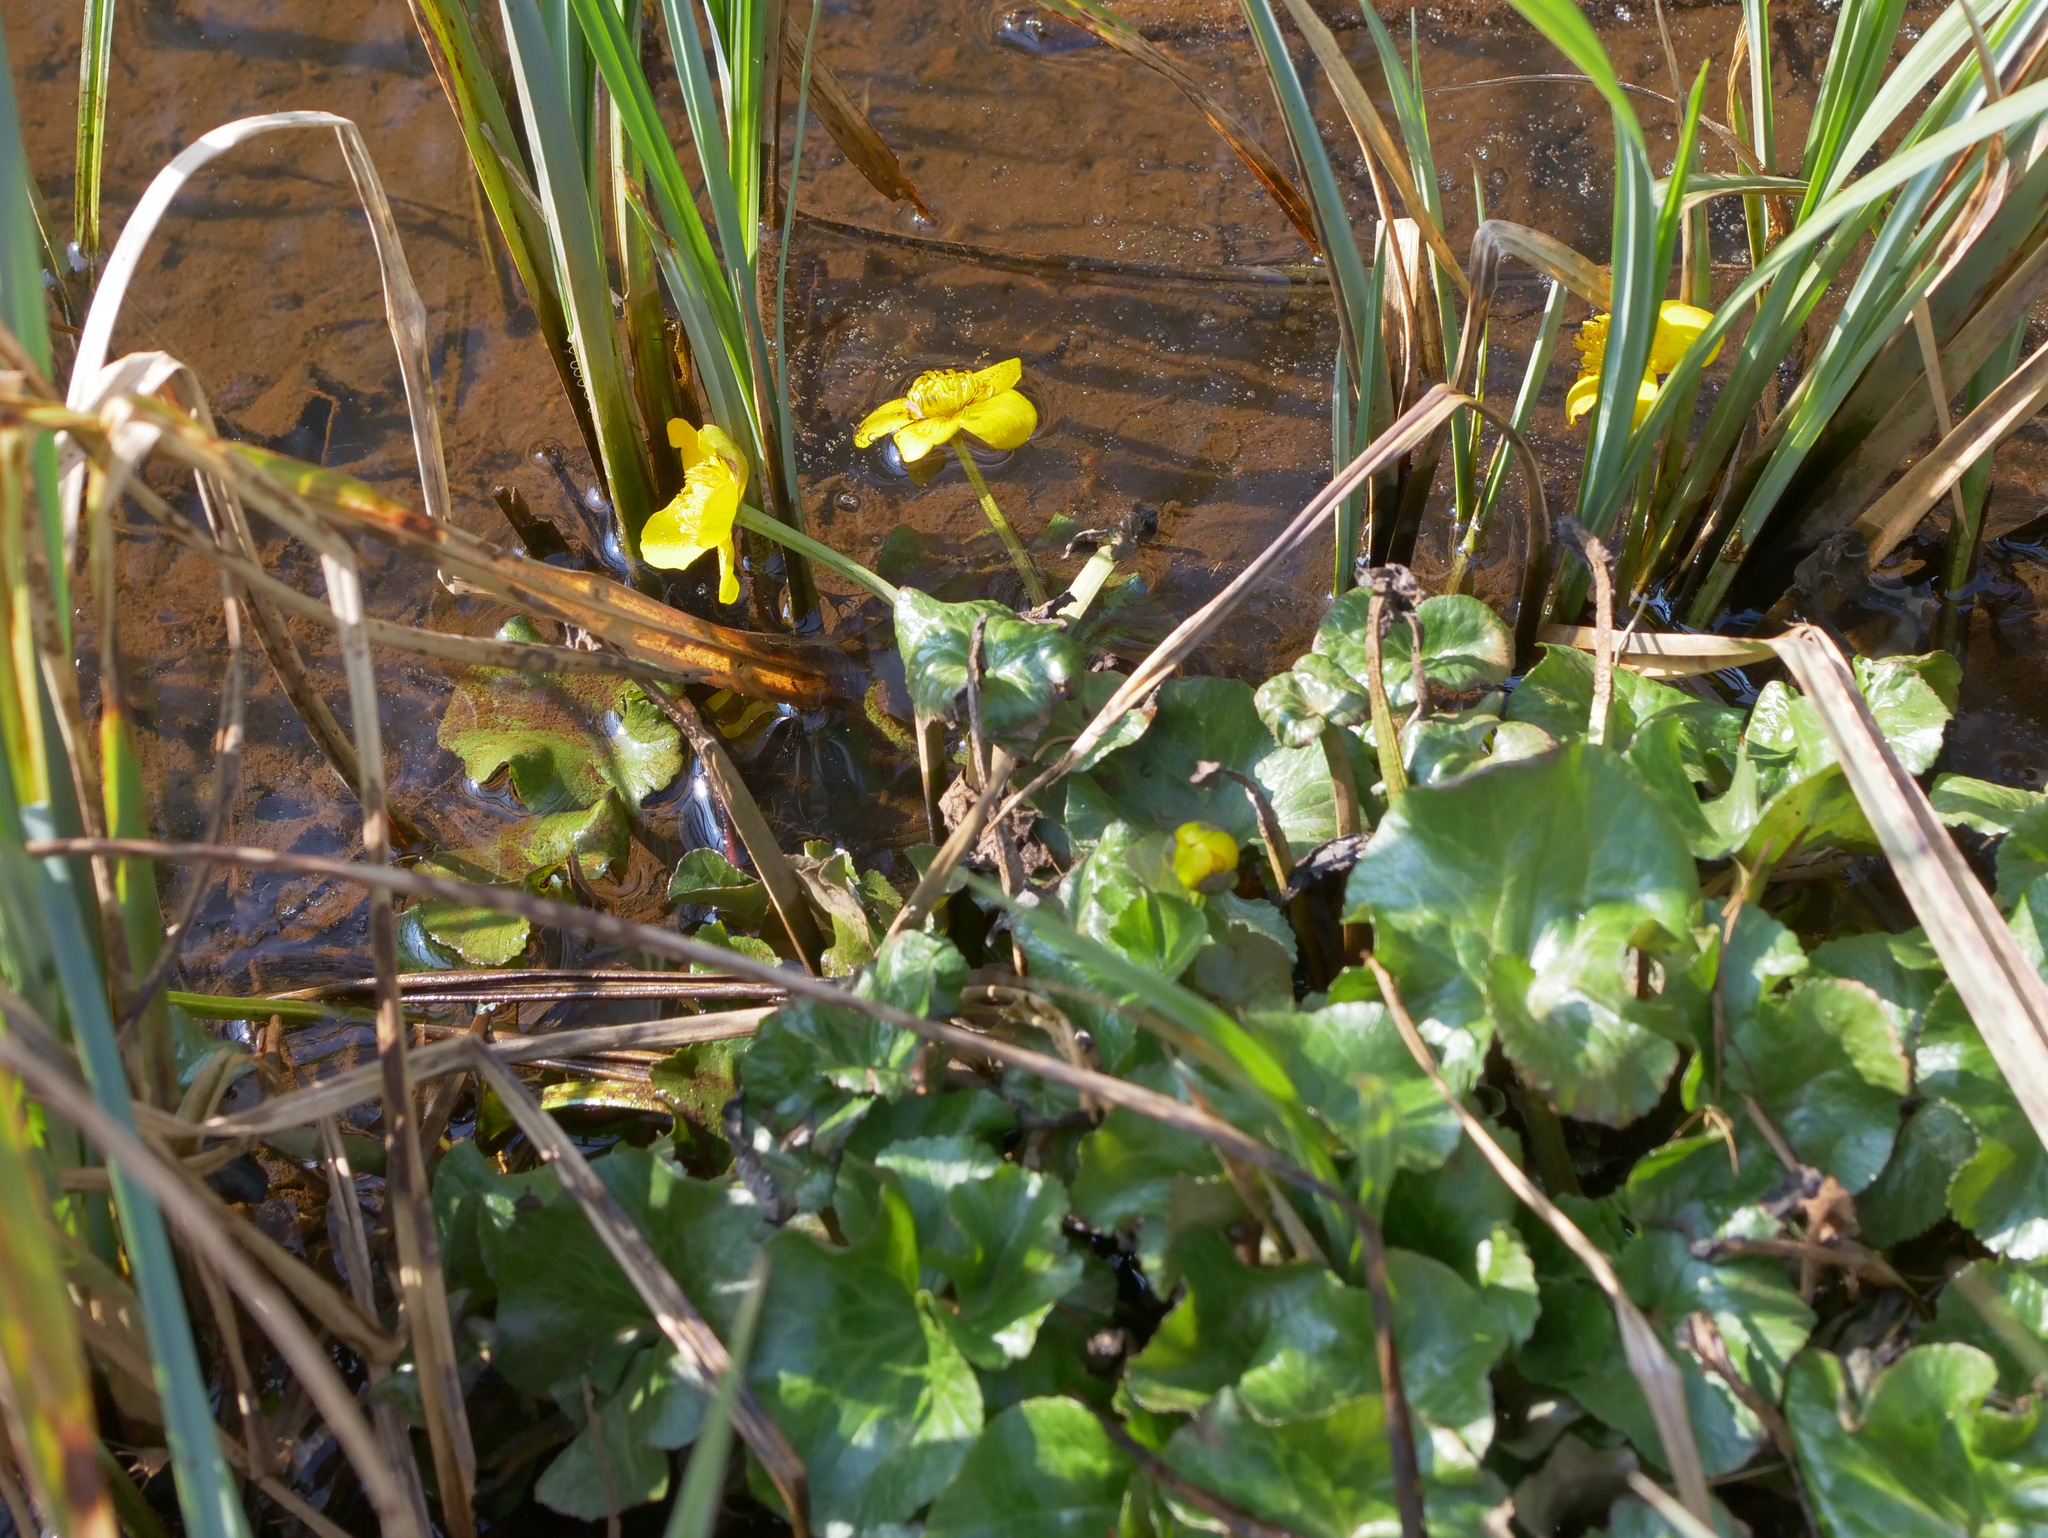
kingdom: Plantae
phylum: Tracheophyta
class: Magnoliopsida
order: Ranunculales
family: Ranunculaceae
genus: Caltha
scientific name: Caltha palustris
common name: Marsh marigold
